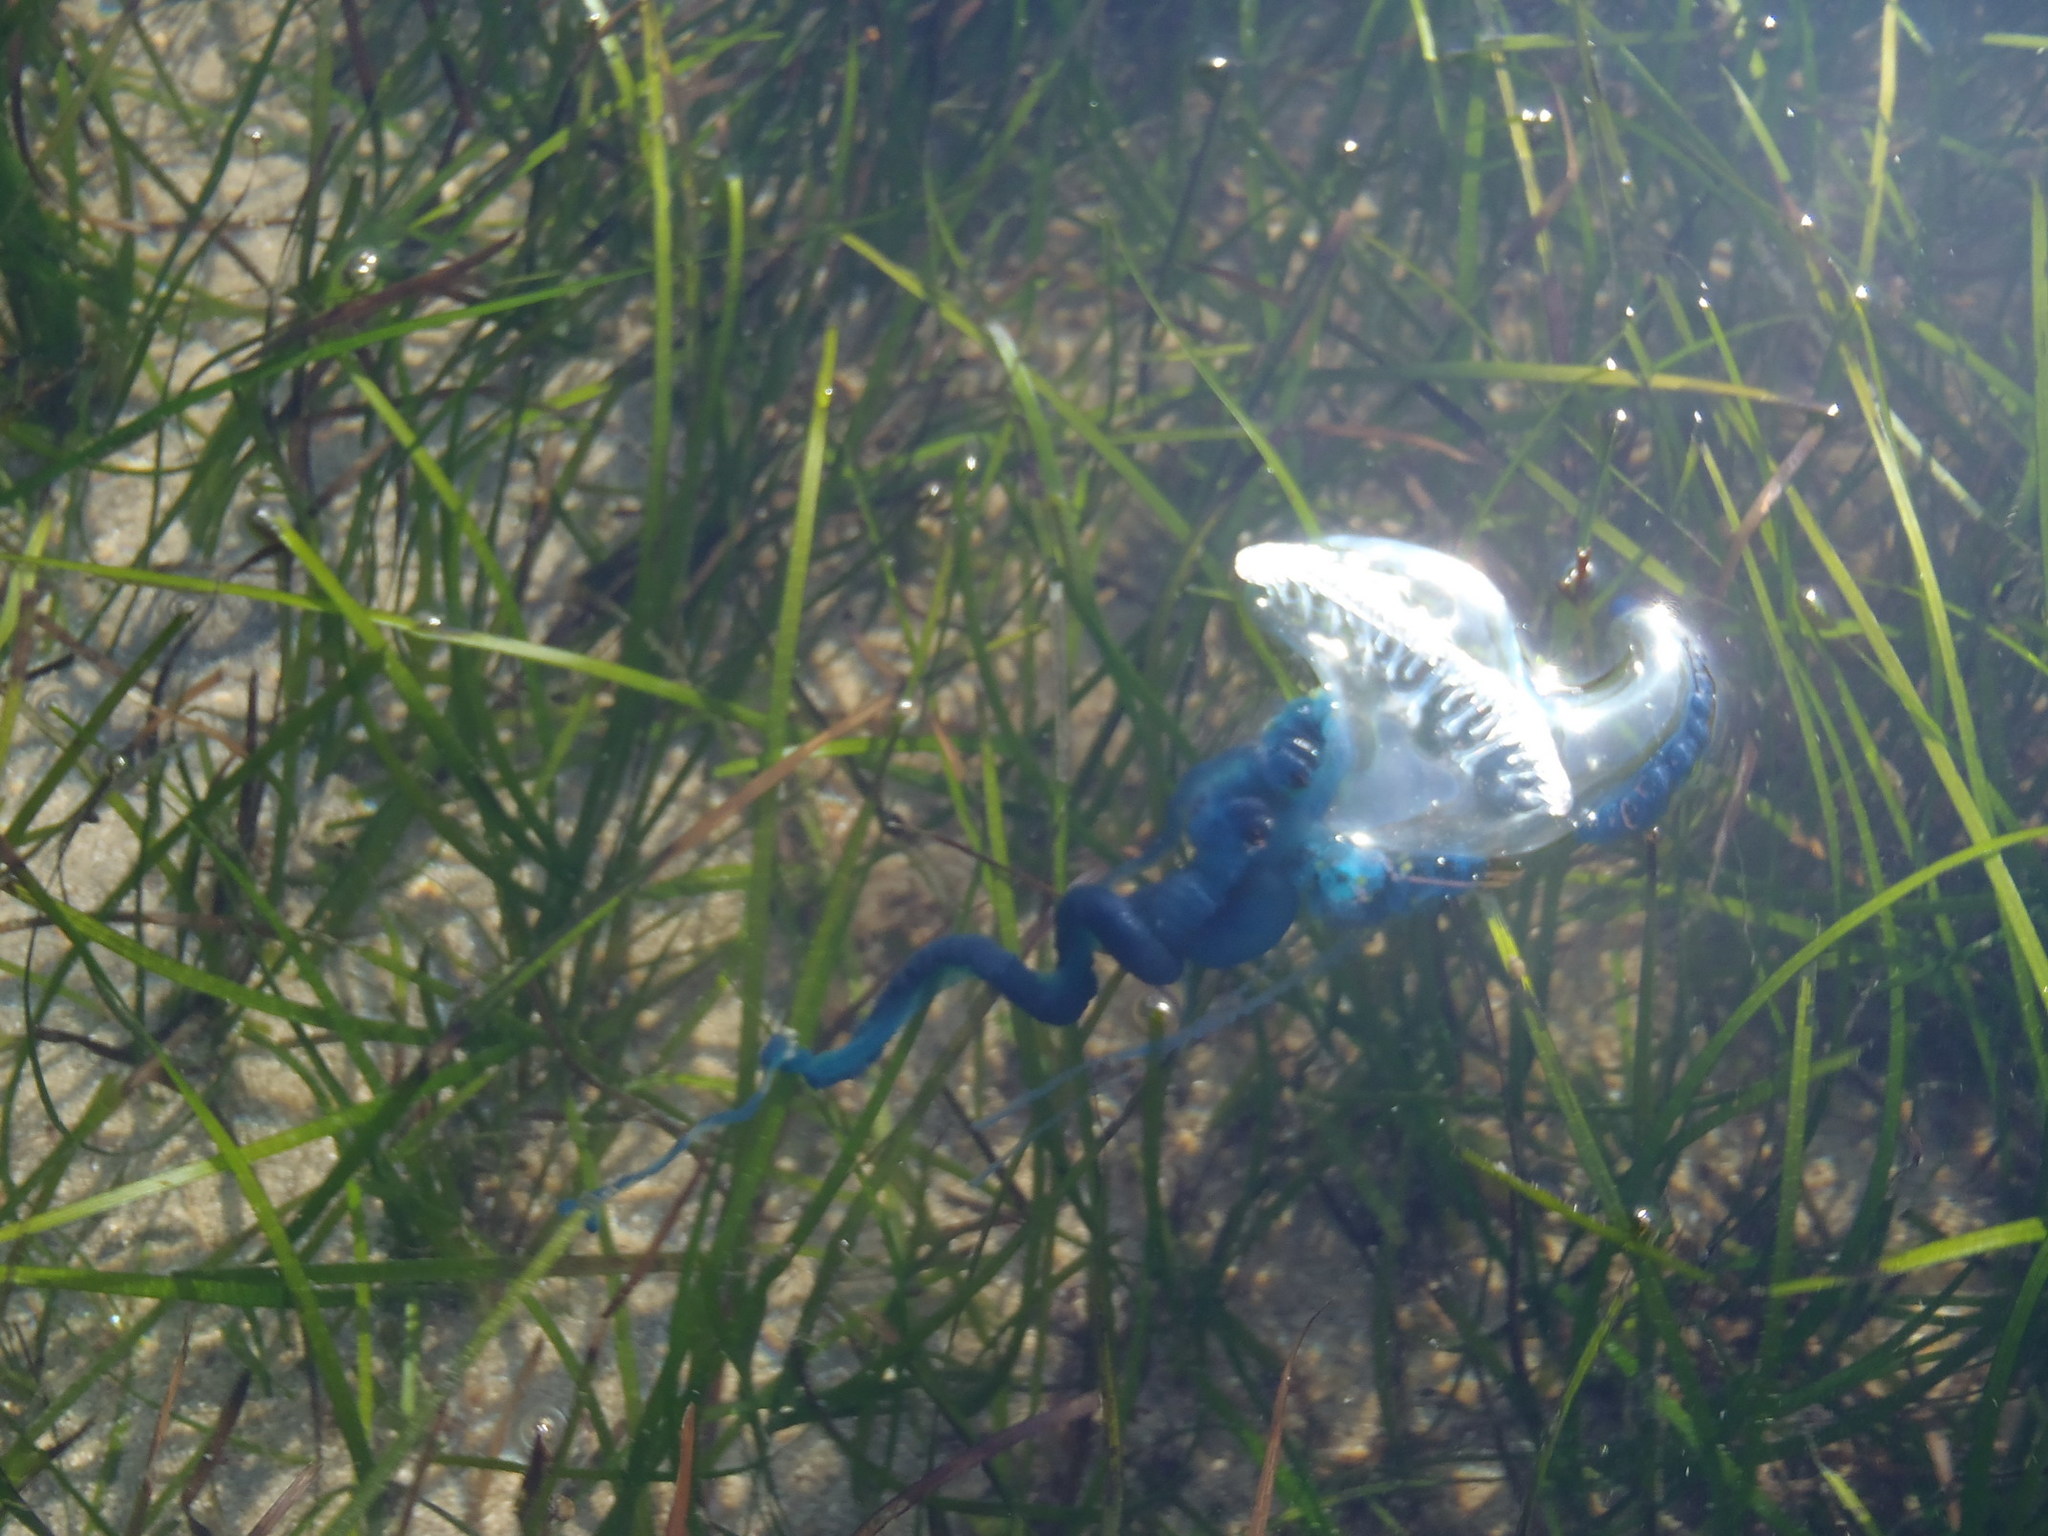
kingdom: Animalia
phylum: Cnidaria
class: Hydrozoa
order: Siphonophorae
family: Physaliidae
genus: Physalia
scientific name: Physalia physalis
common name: Portuguese man-of-war
